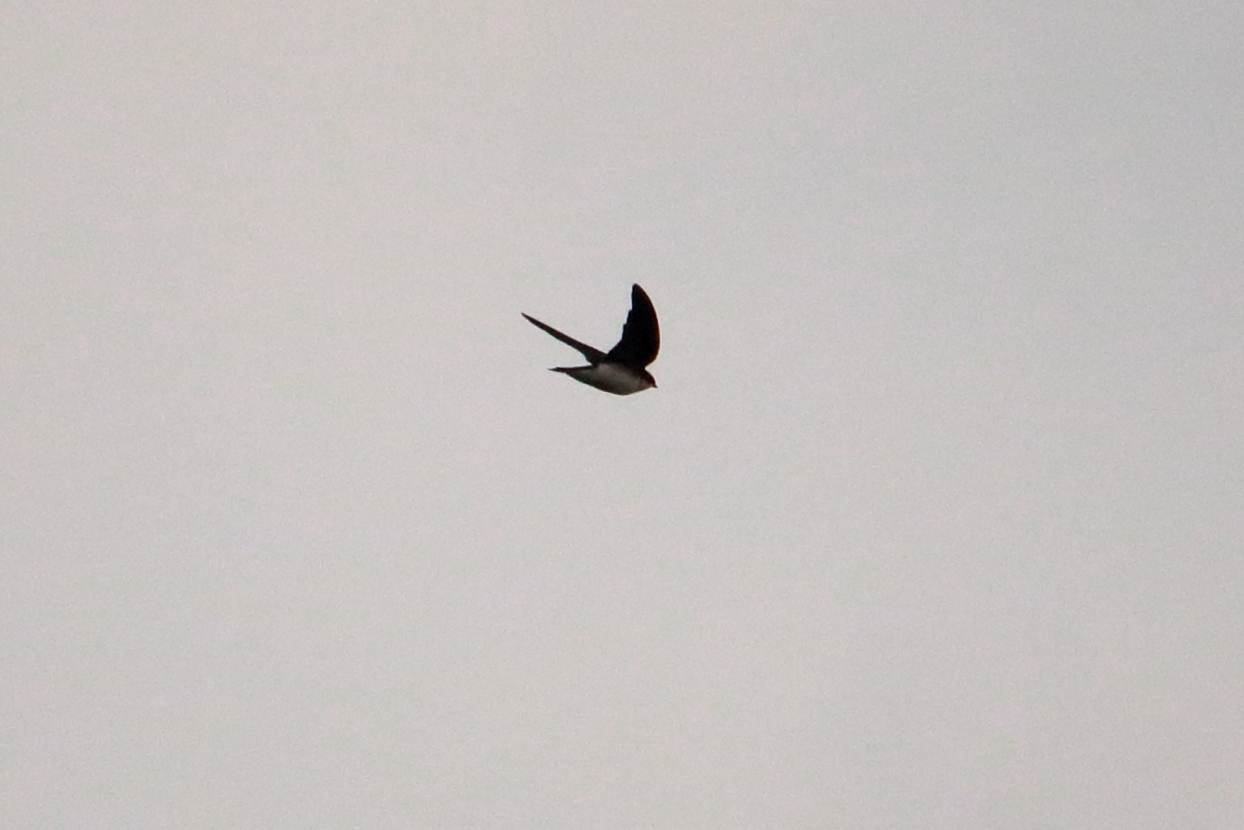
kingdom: Animalia
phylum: Chordata
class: Aves
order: Passeriformes
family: Hirundinidae
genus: Tachycineta
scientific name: Tachycineta bicolor
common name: Tree swallow
